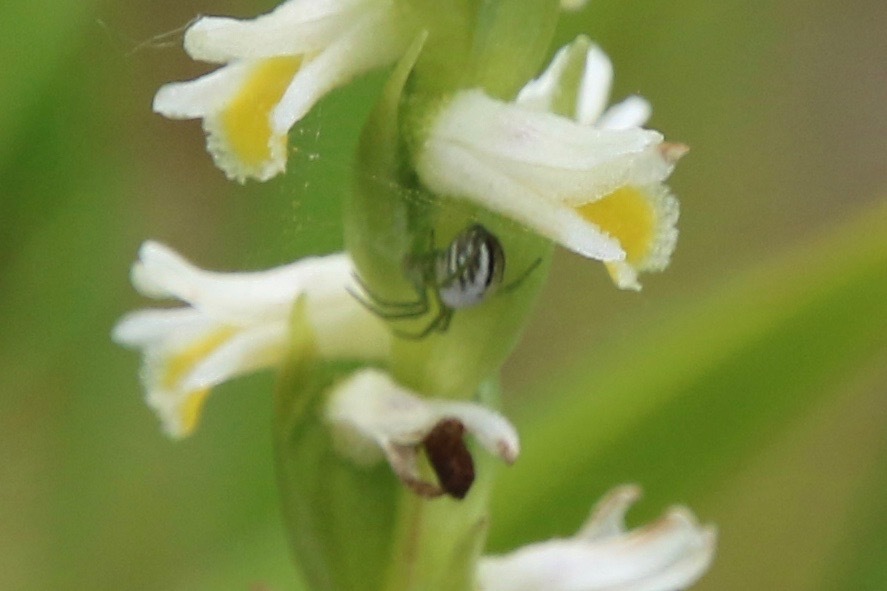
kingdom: Animalia
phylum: Arthropoda
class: Arachnida
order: Araneae
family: Araneidae
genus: Mangora
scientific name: Mangora gibberosa
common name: Lined orbweaver
